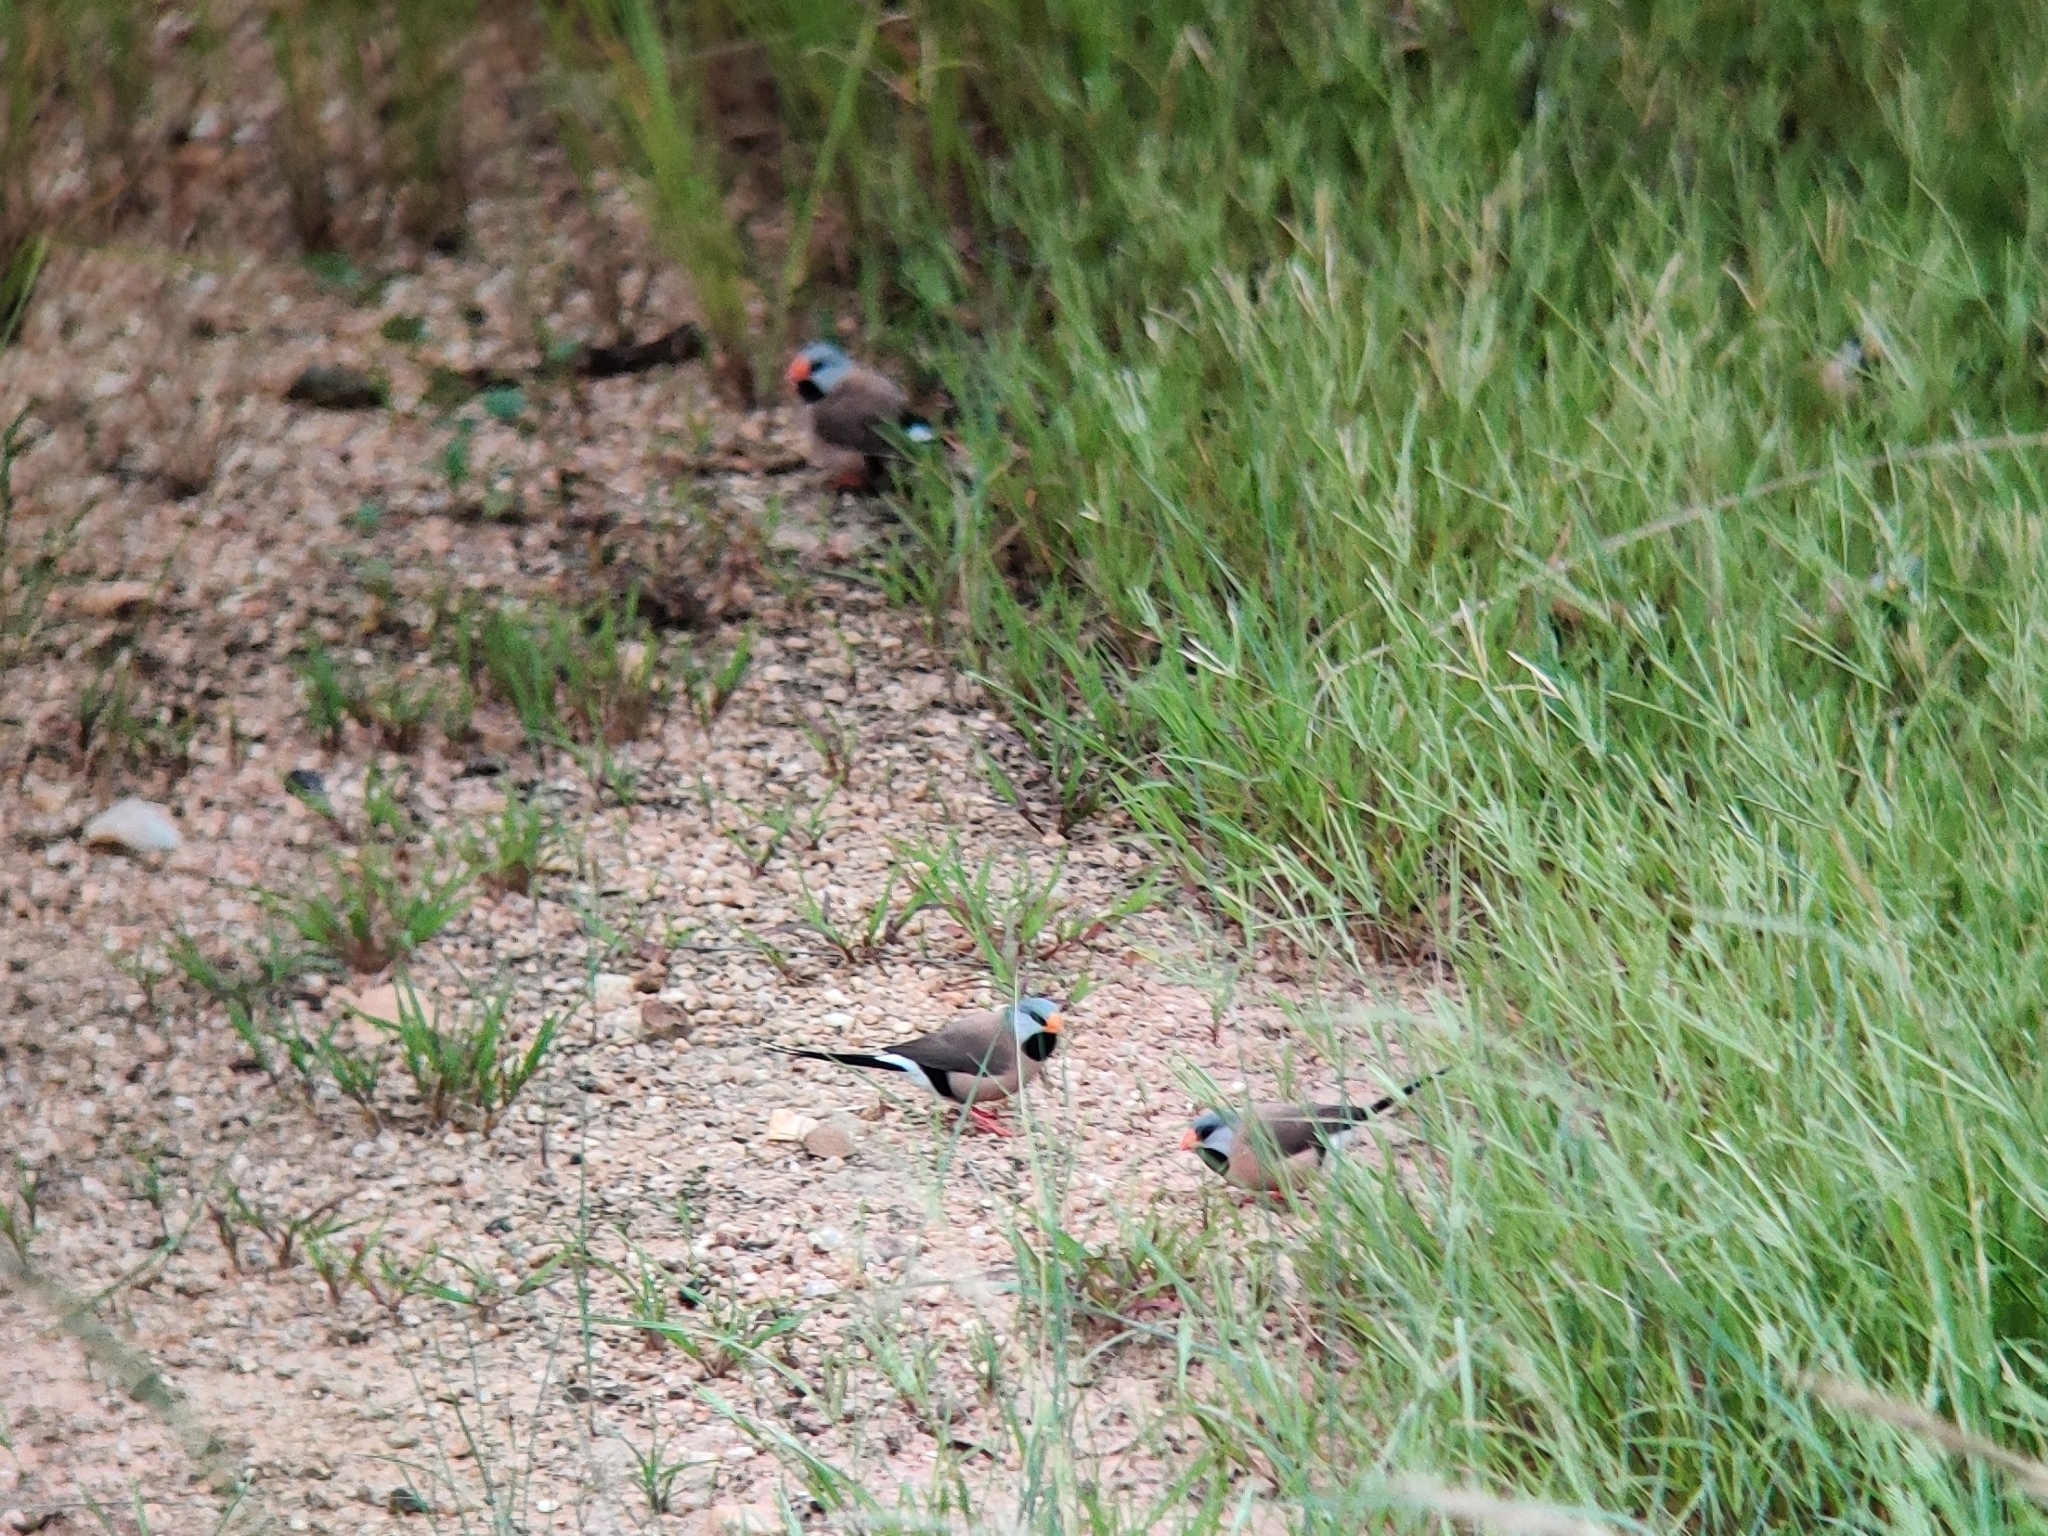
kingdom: Animalia
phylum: Chordata
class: Aves
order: Passeriformes
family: Estrildidae
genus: Poephila
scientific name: Poephila acuticauda
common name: Long-tailed finch
